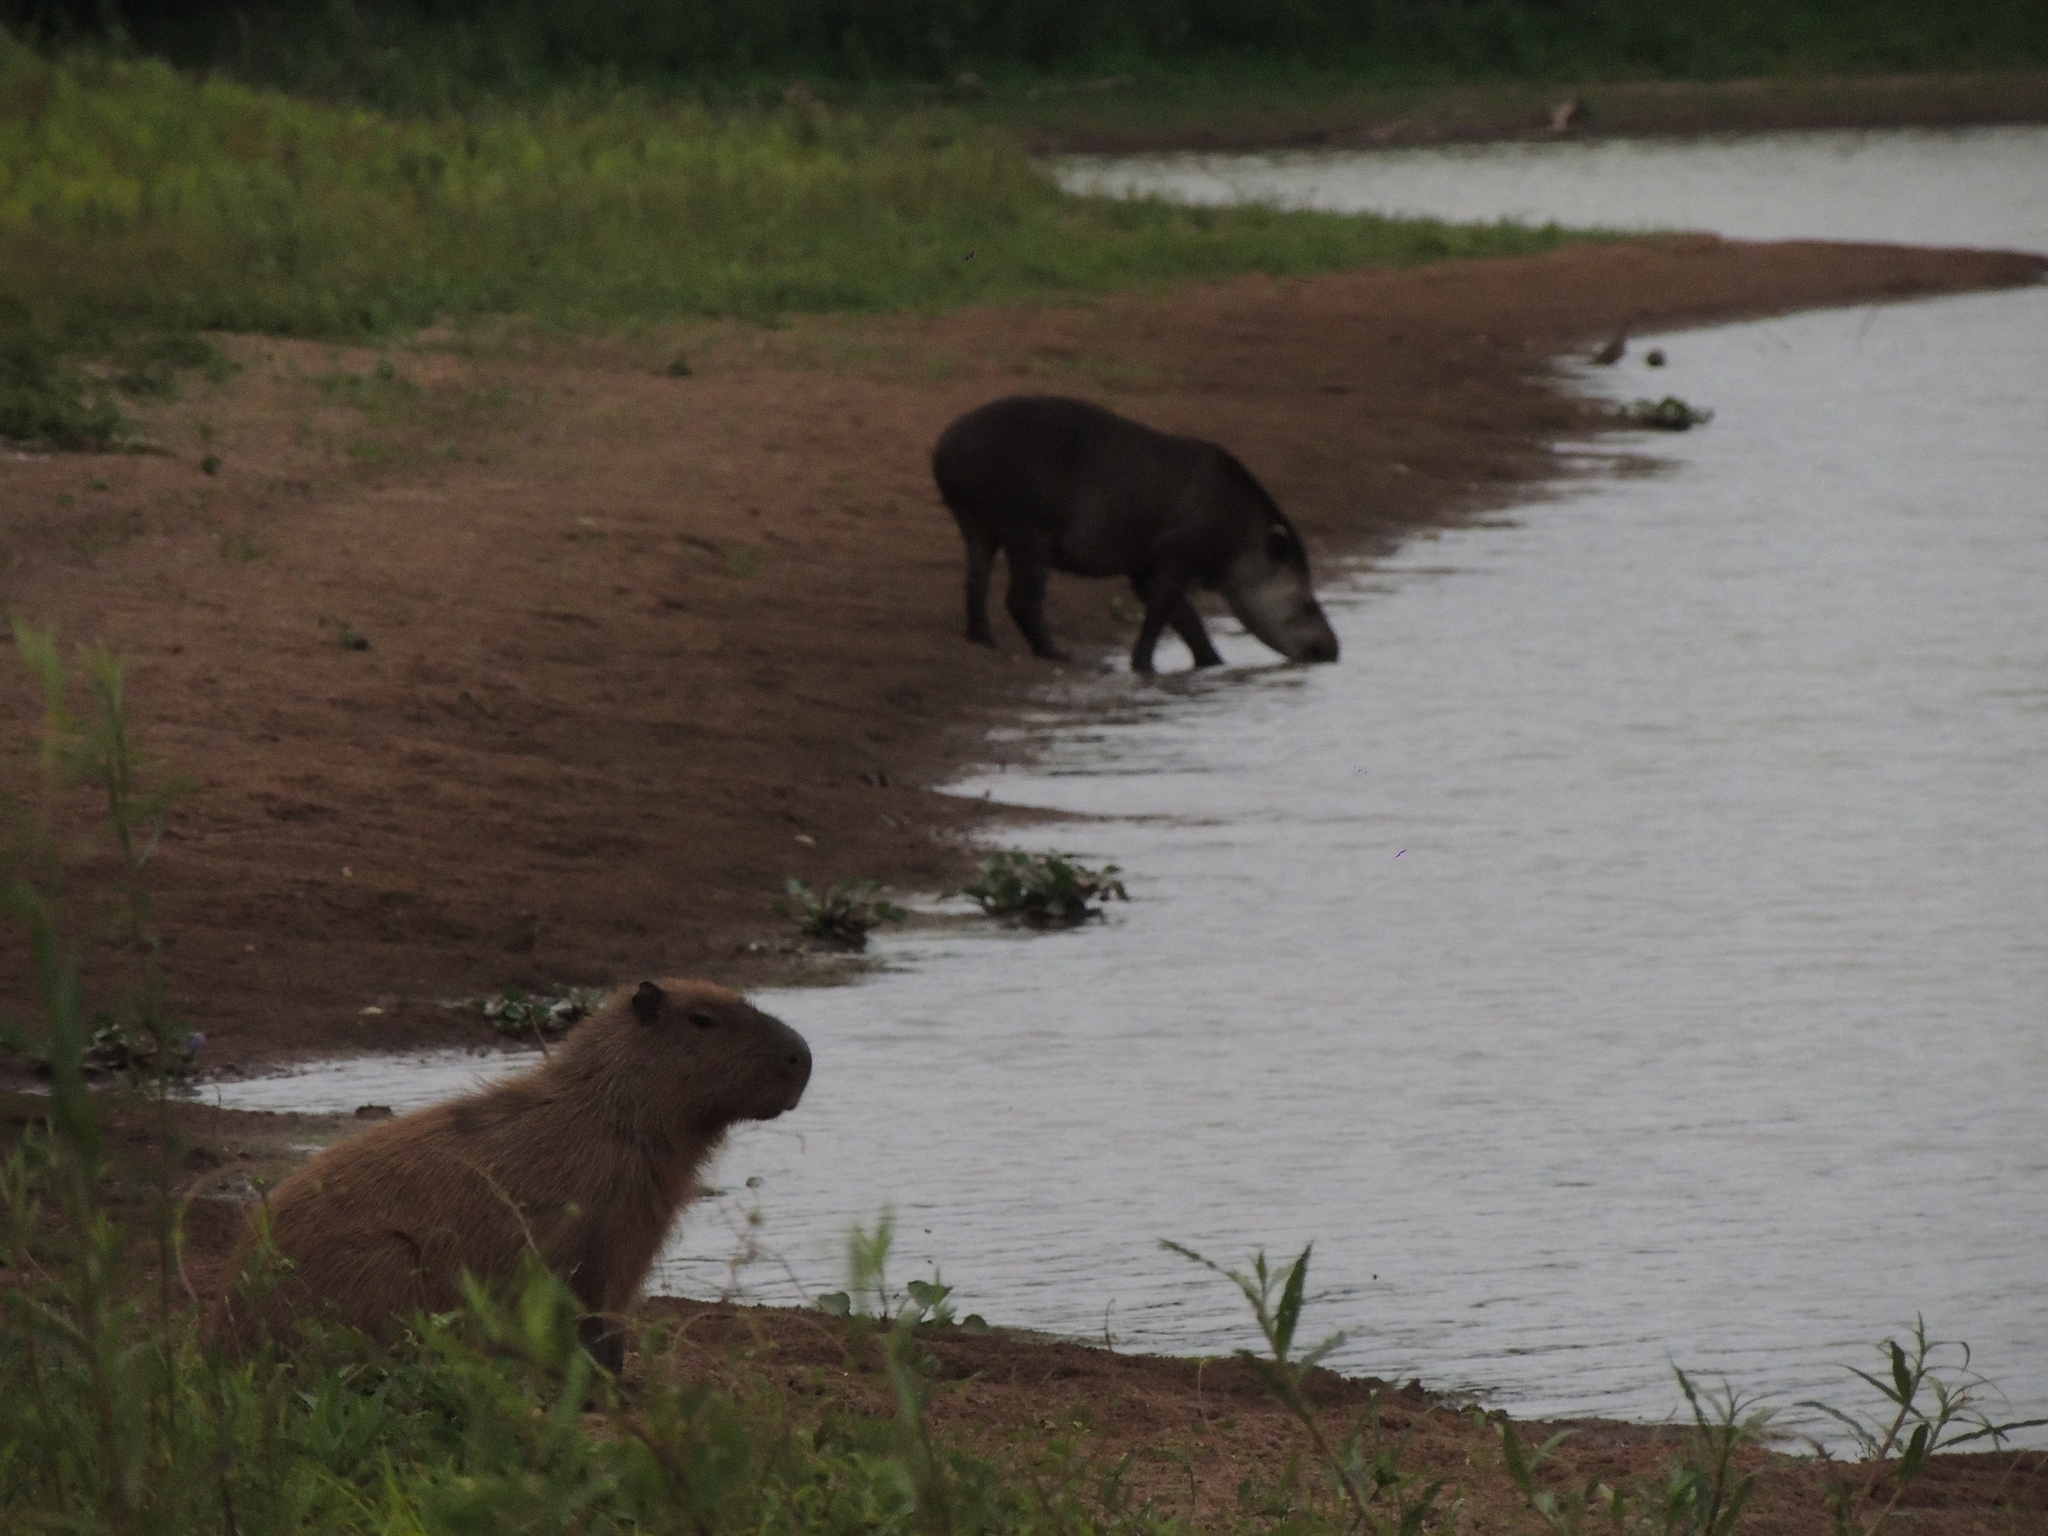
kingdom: Animalia
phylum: Chordata
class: Mammalia
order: Rodentia
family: Caviidae
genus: Hydrochoerus
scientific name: Hydrochoerus hydrochaeris
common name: Capybara
